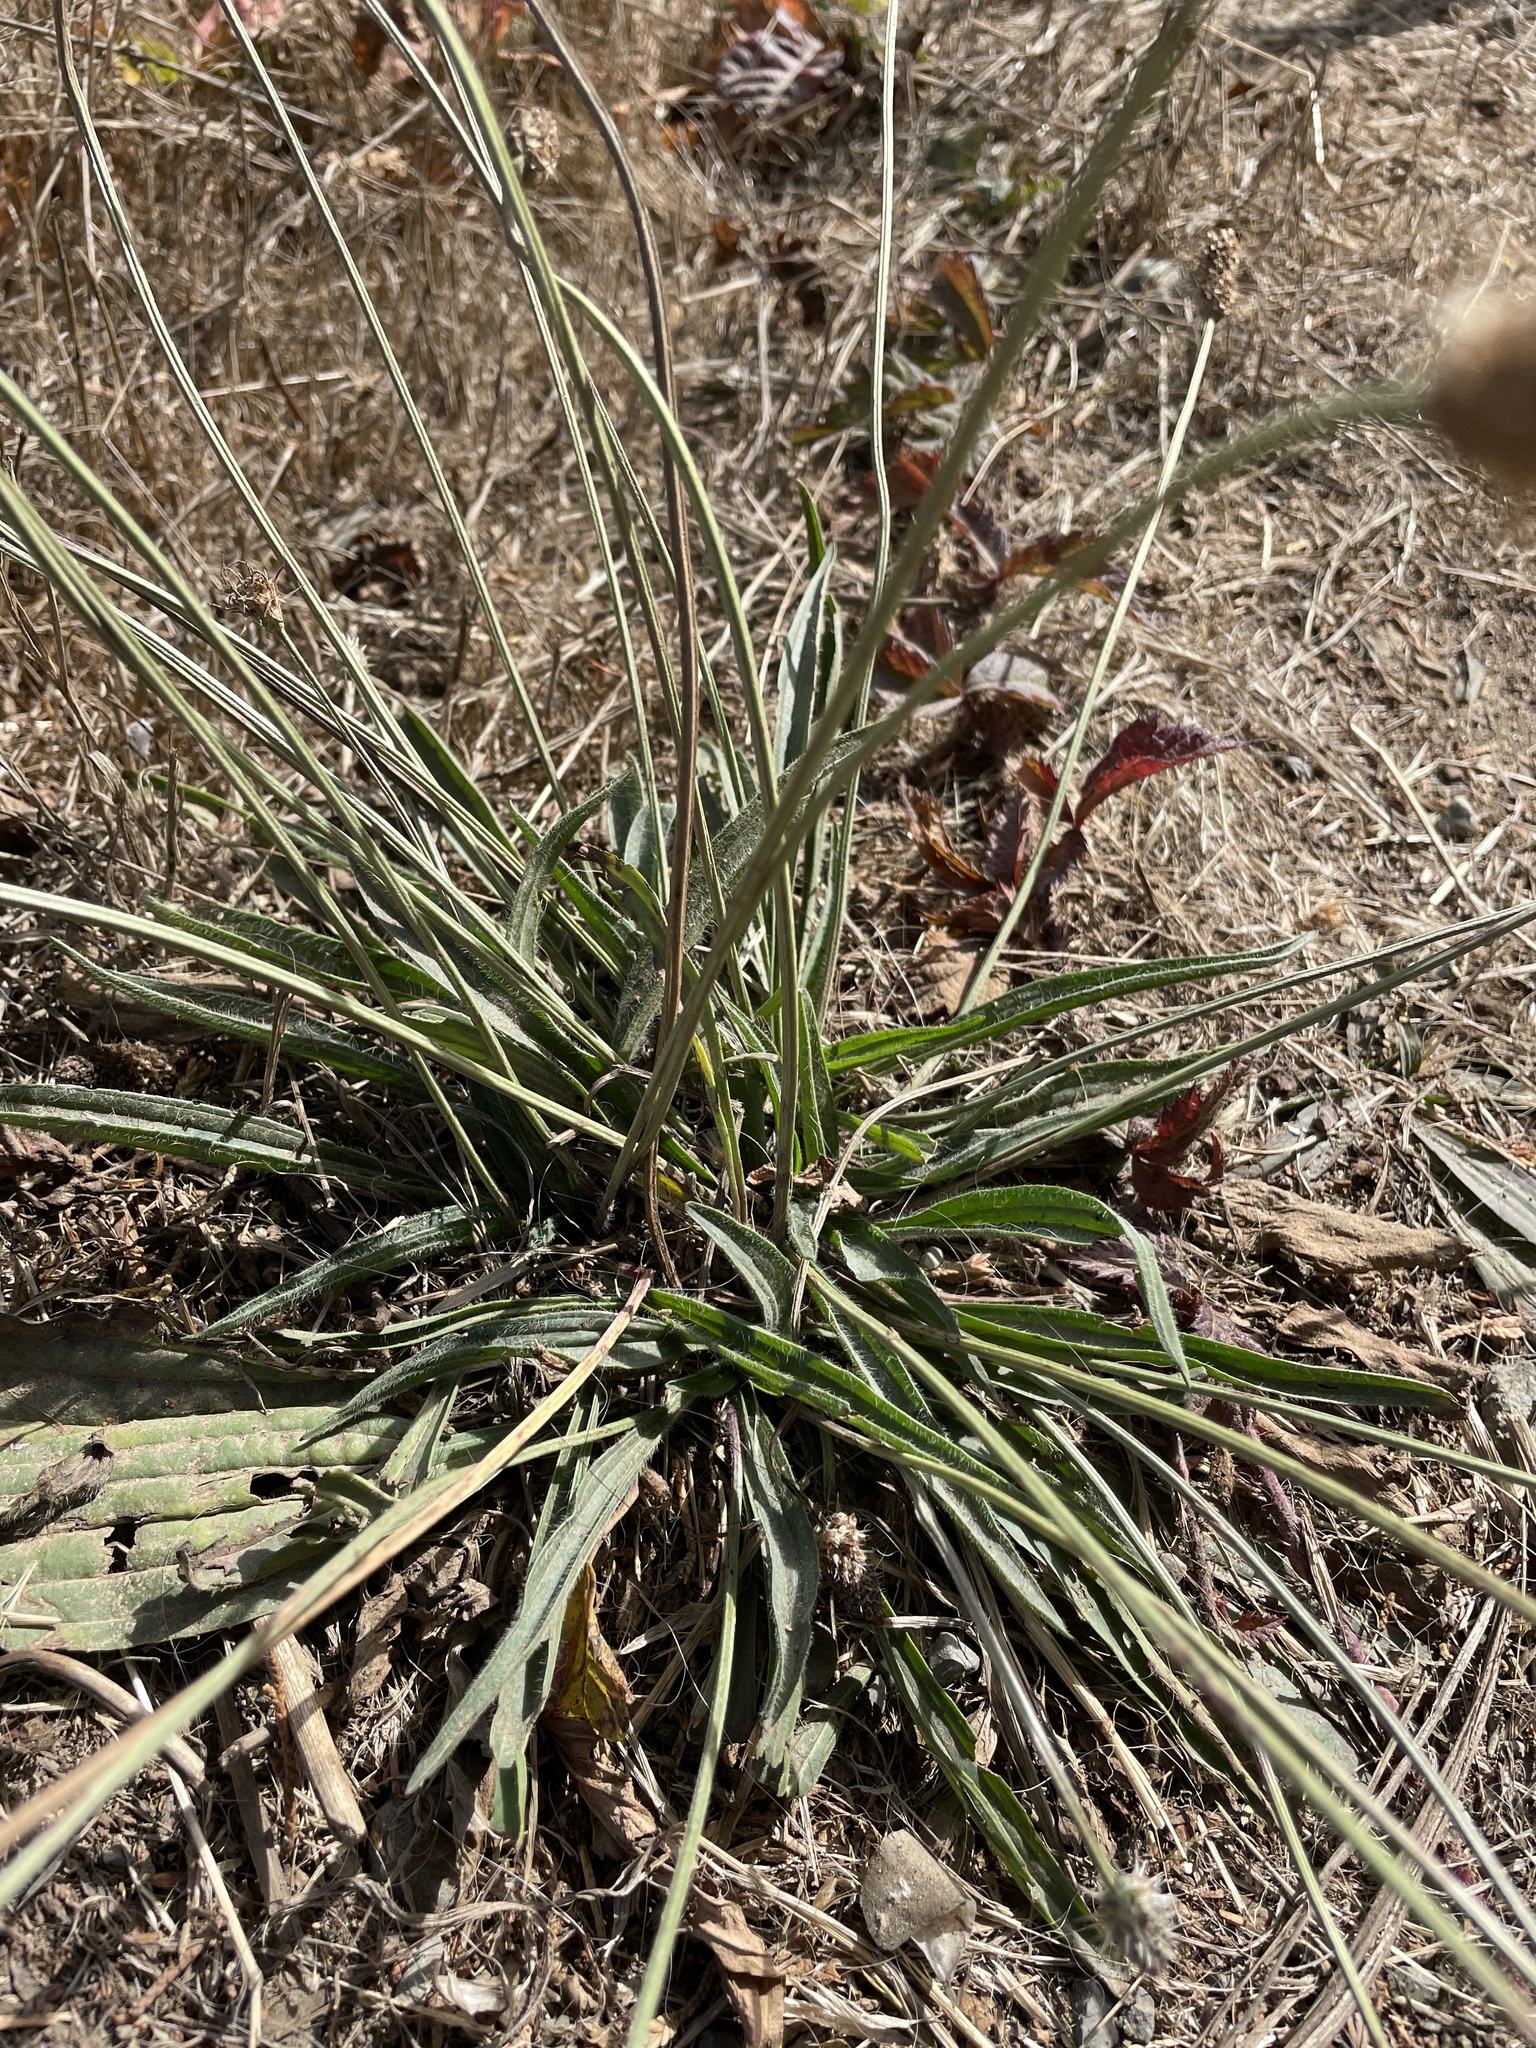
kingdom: Plantae
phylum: Tracheophyta
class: Magnoliopsida
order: Lamiales
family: Plantaginaceae
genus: Plantago
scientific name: Plantago lanceolata
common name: Ribwort plantain
